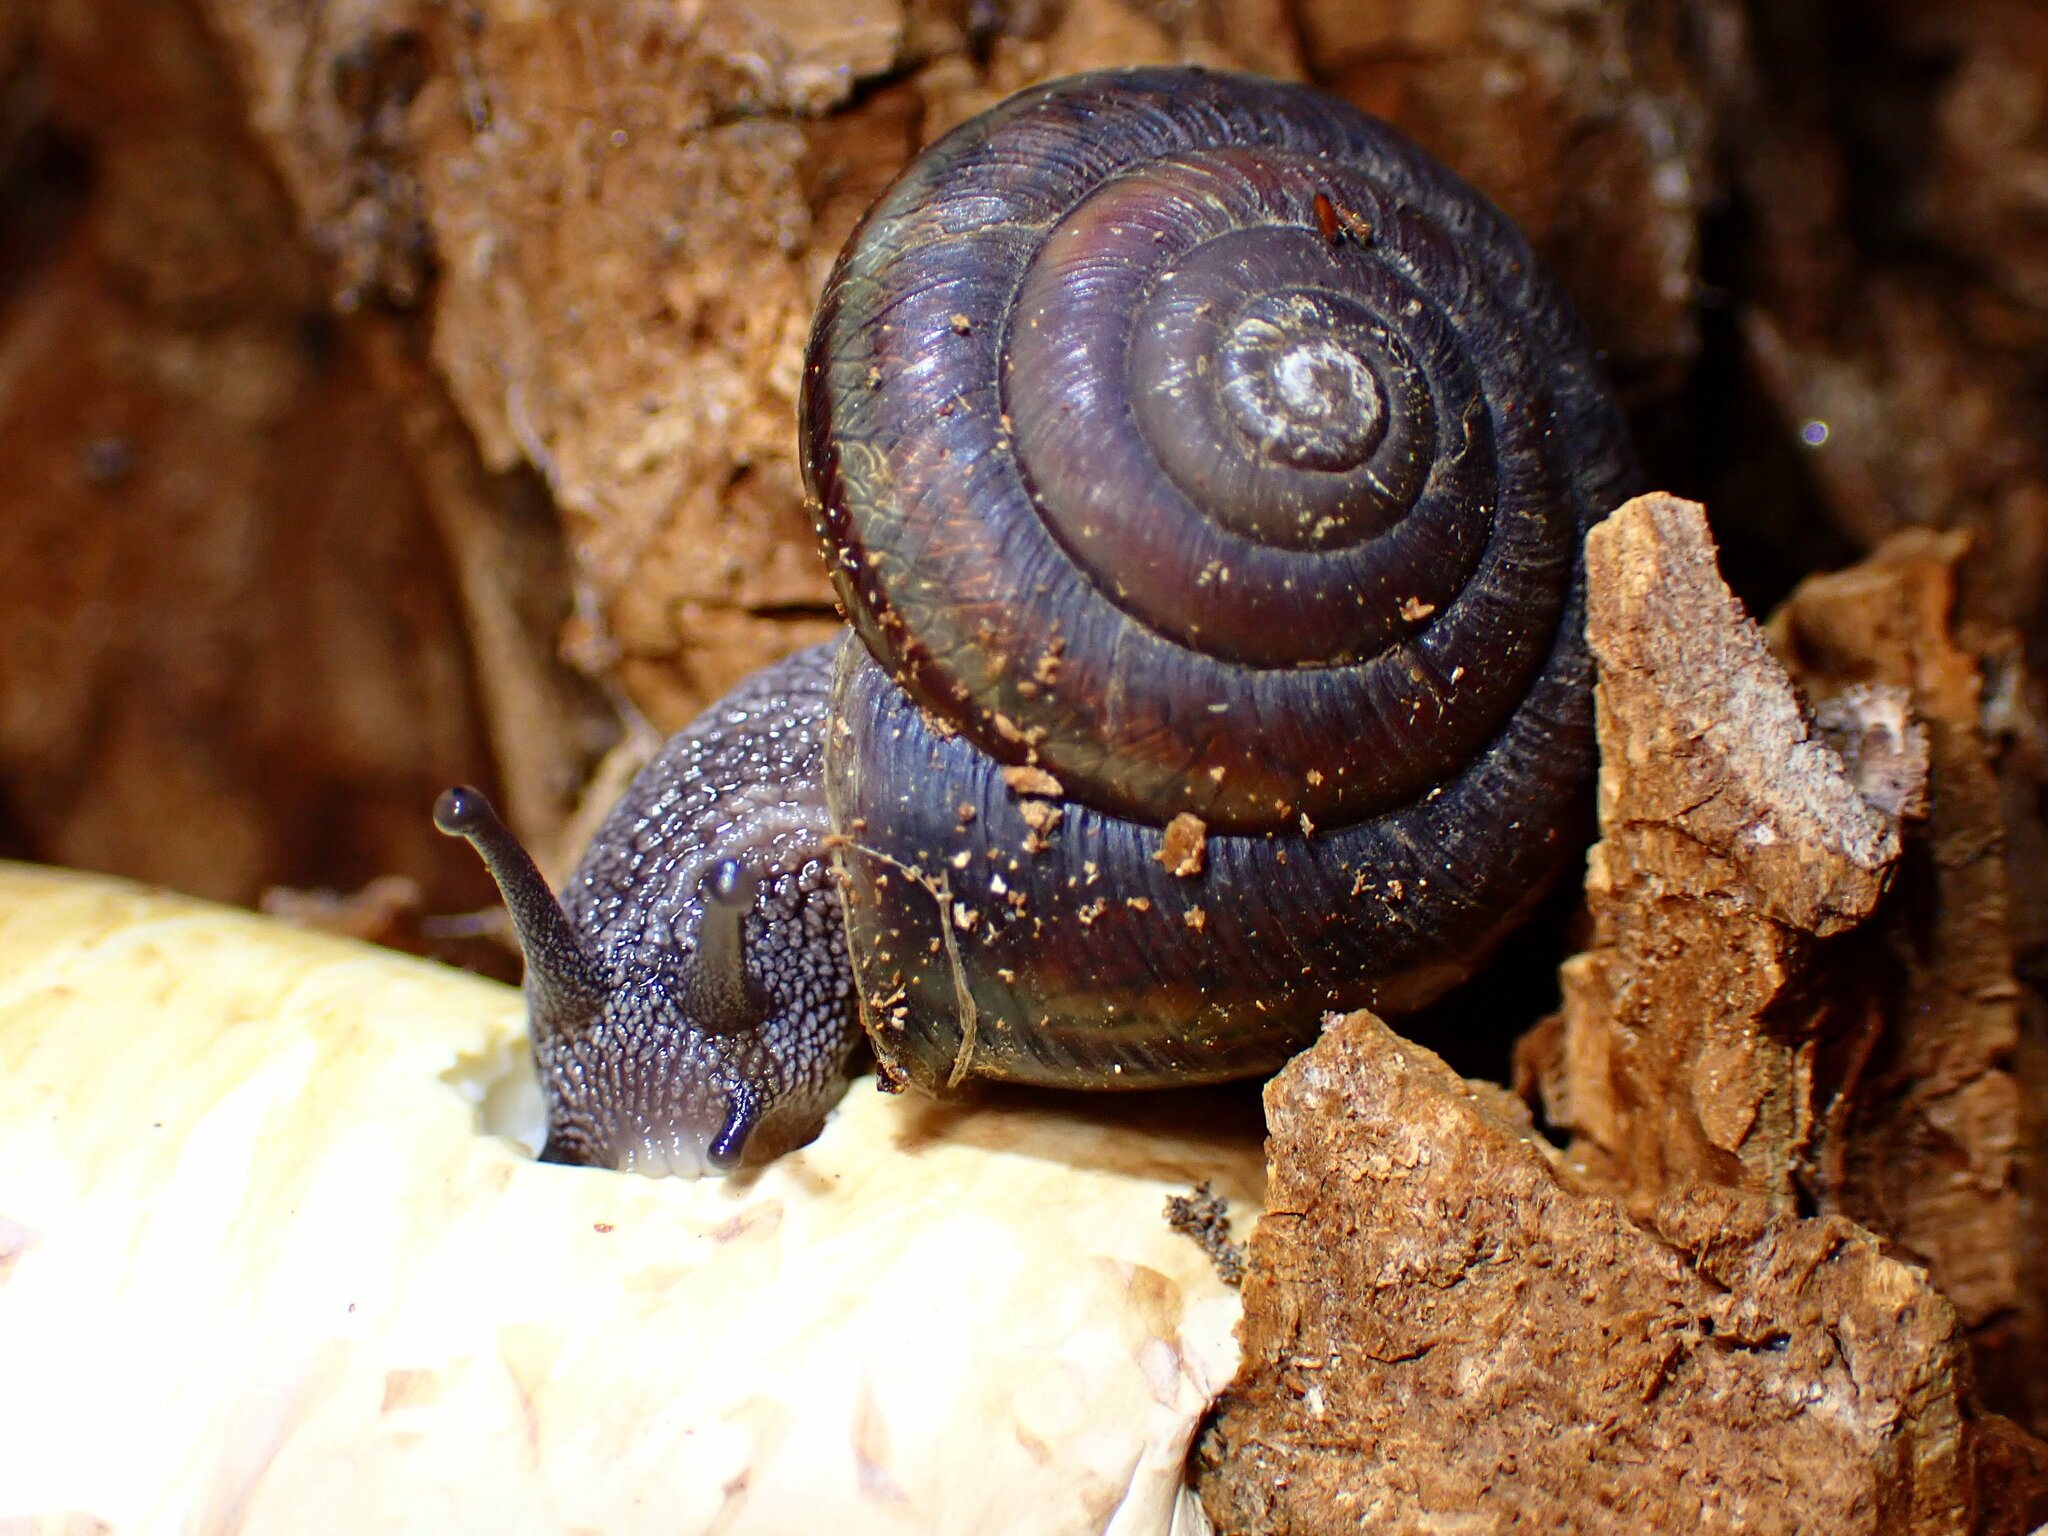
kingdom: Animalia
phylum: Mollusca
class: Gastropoda
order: Stylommatophora
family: Xanthonychidae
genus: Monadenia
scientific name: Monadenia mormonum
